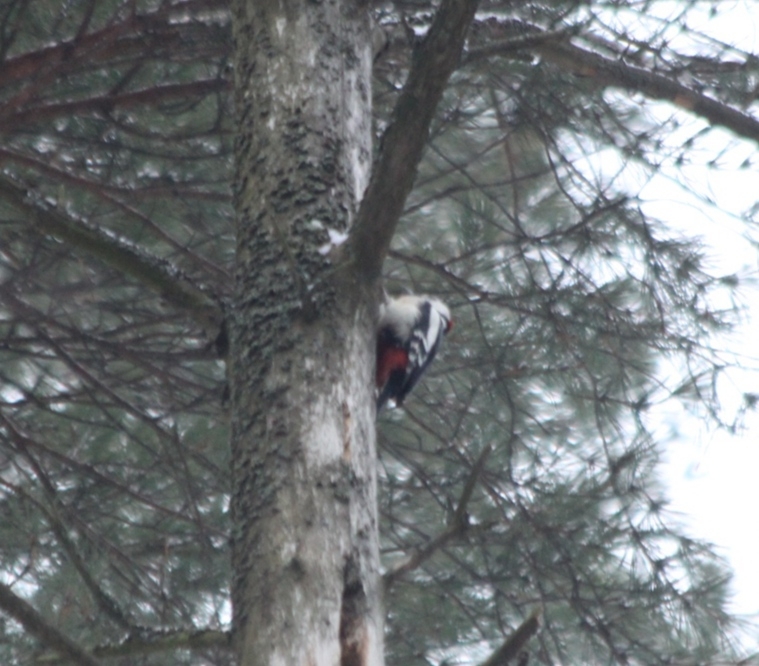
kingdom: Animalia
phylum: Chordata
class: Aves
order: Piciformes
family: Picidae
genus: Dendrocopos
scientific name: Dendrocopos major
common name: Great spotted woodpecker
